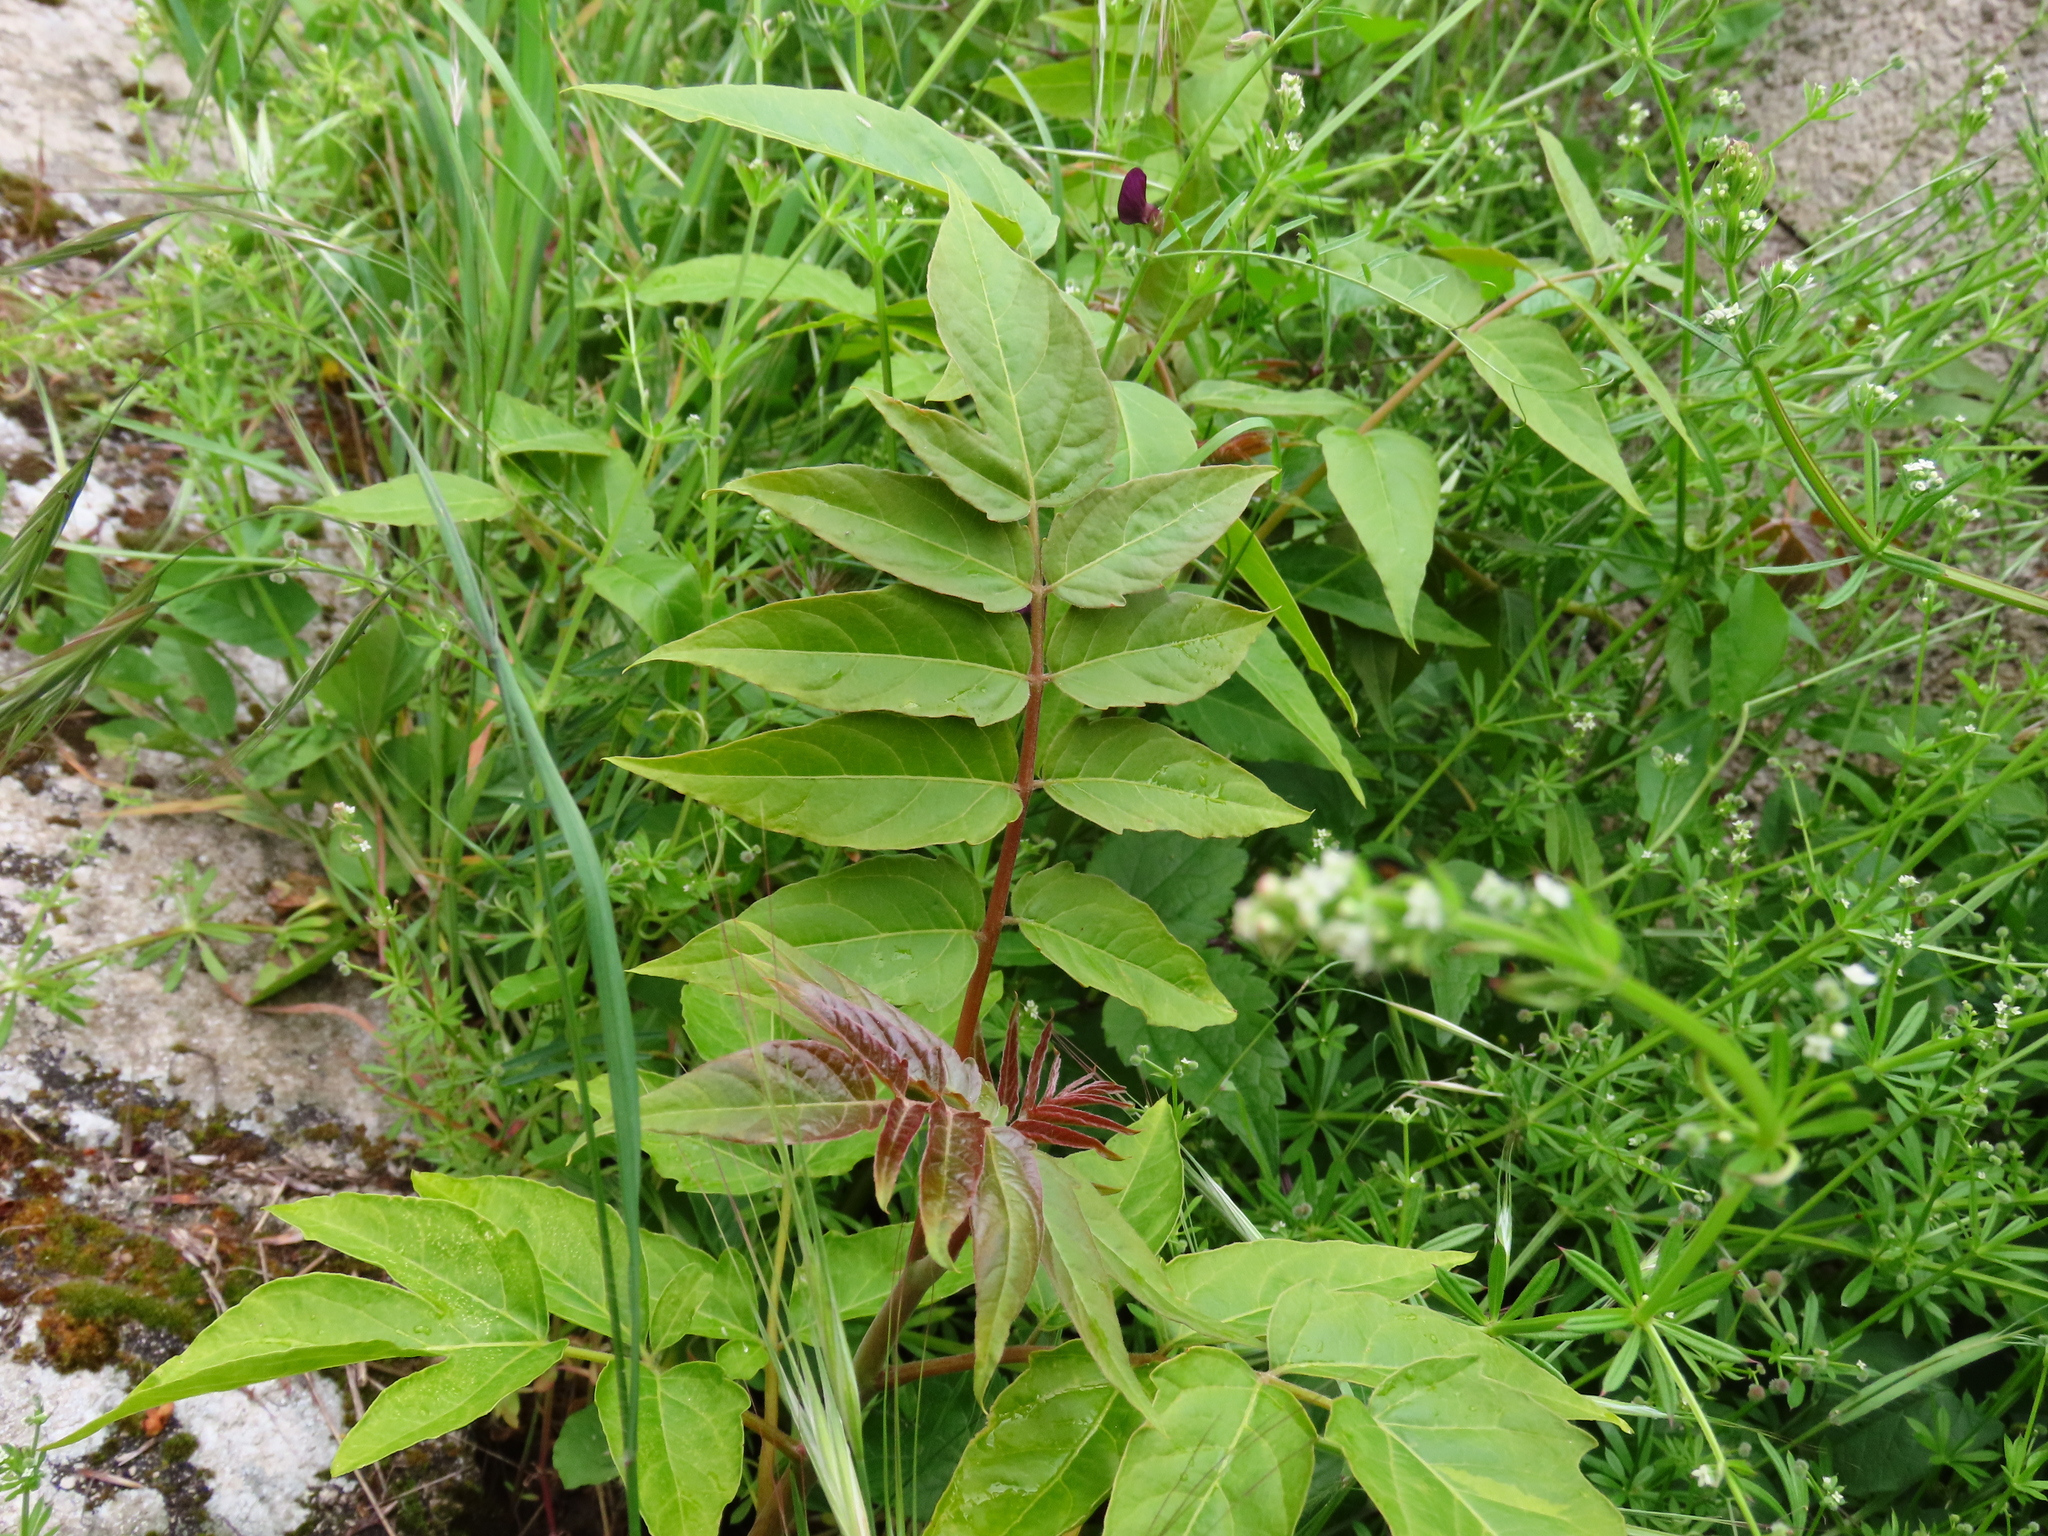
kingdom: Plantae
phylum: Tracheophyta
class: Magnoliopsida
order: Sapindales
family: Simaroubaceae
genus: Ailanthus
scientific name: Ailanthus altissima
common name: Tree-of-heaven
